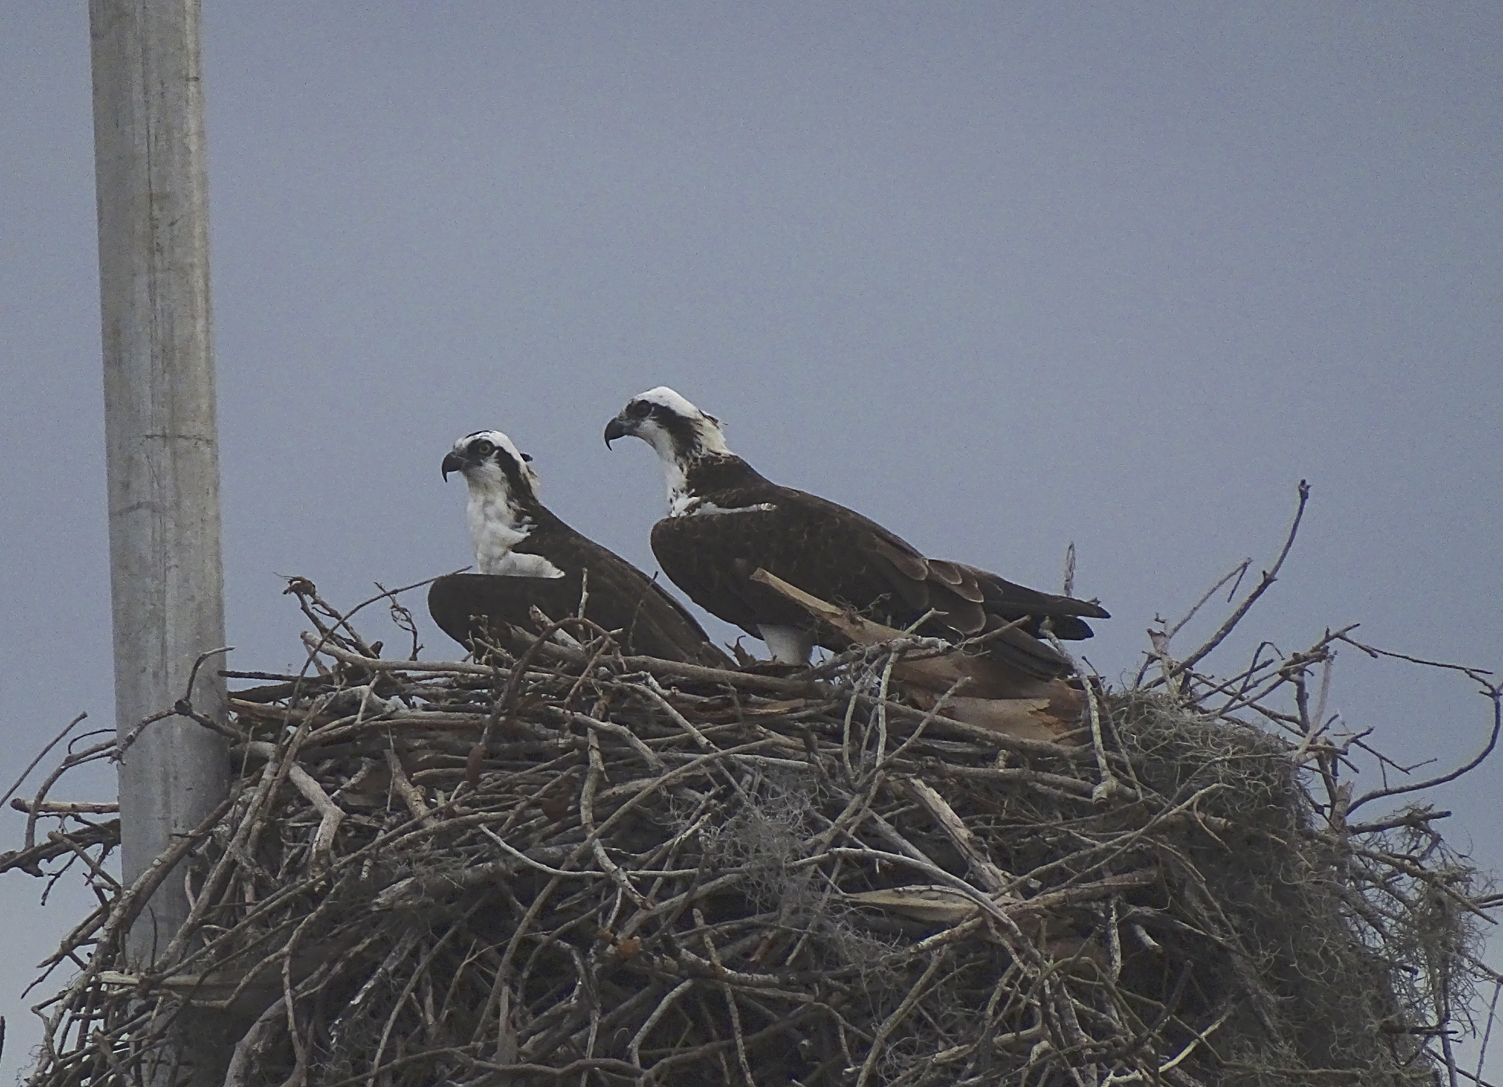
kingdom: Animalia
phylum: Chordata
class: Aves
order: Accipitriformes
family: Pandionidae
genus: Pandion
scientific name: Pandion haliaetus
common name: Osprey
